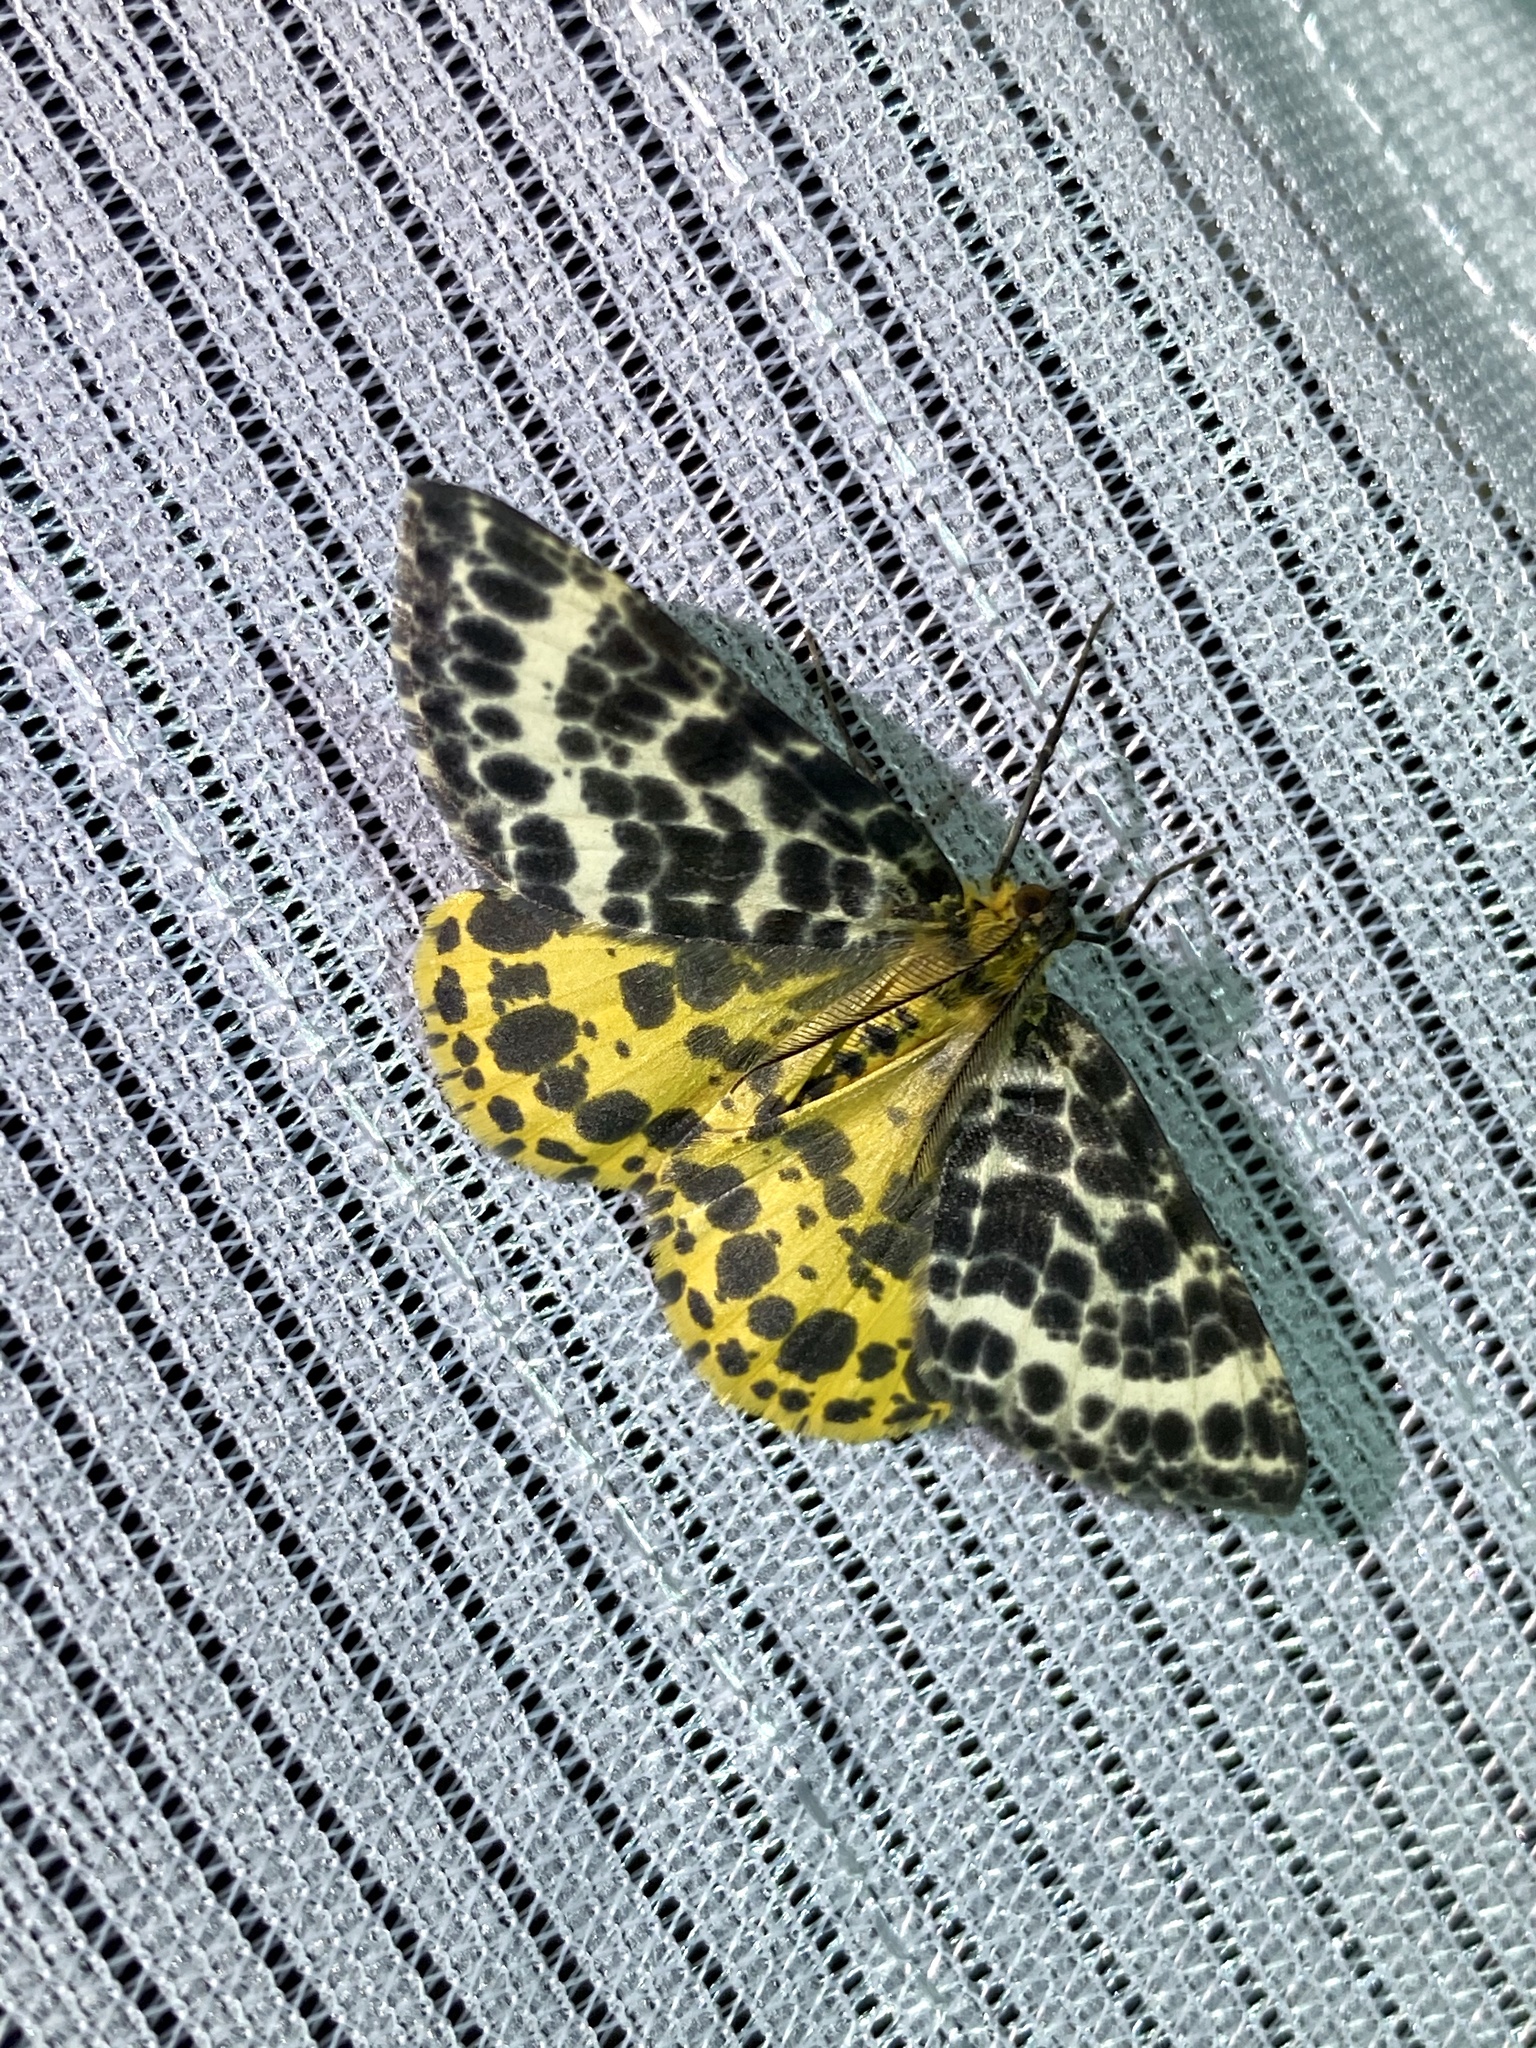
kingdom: Animalia
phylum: Arthropoda
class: Insecta
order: Lepidoptera
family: Geometridae
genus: Arichanna
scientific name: Arichanna melanaria
